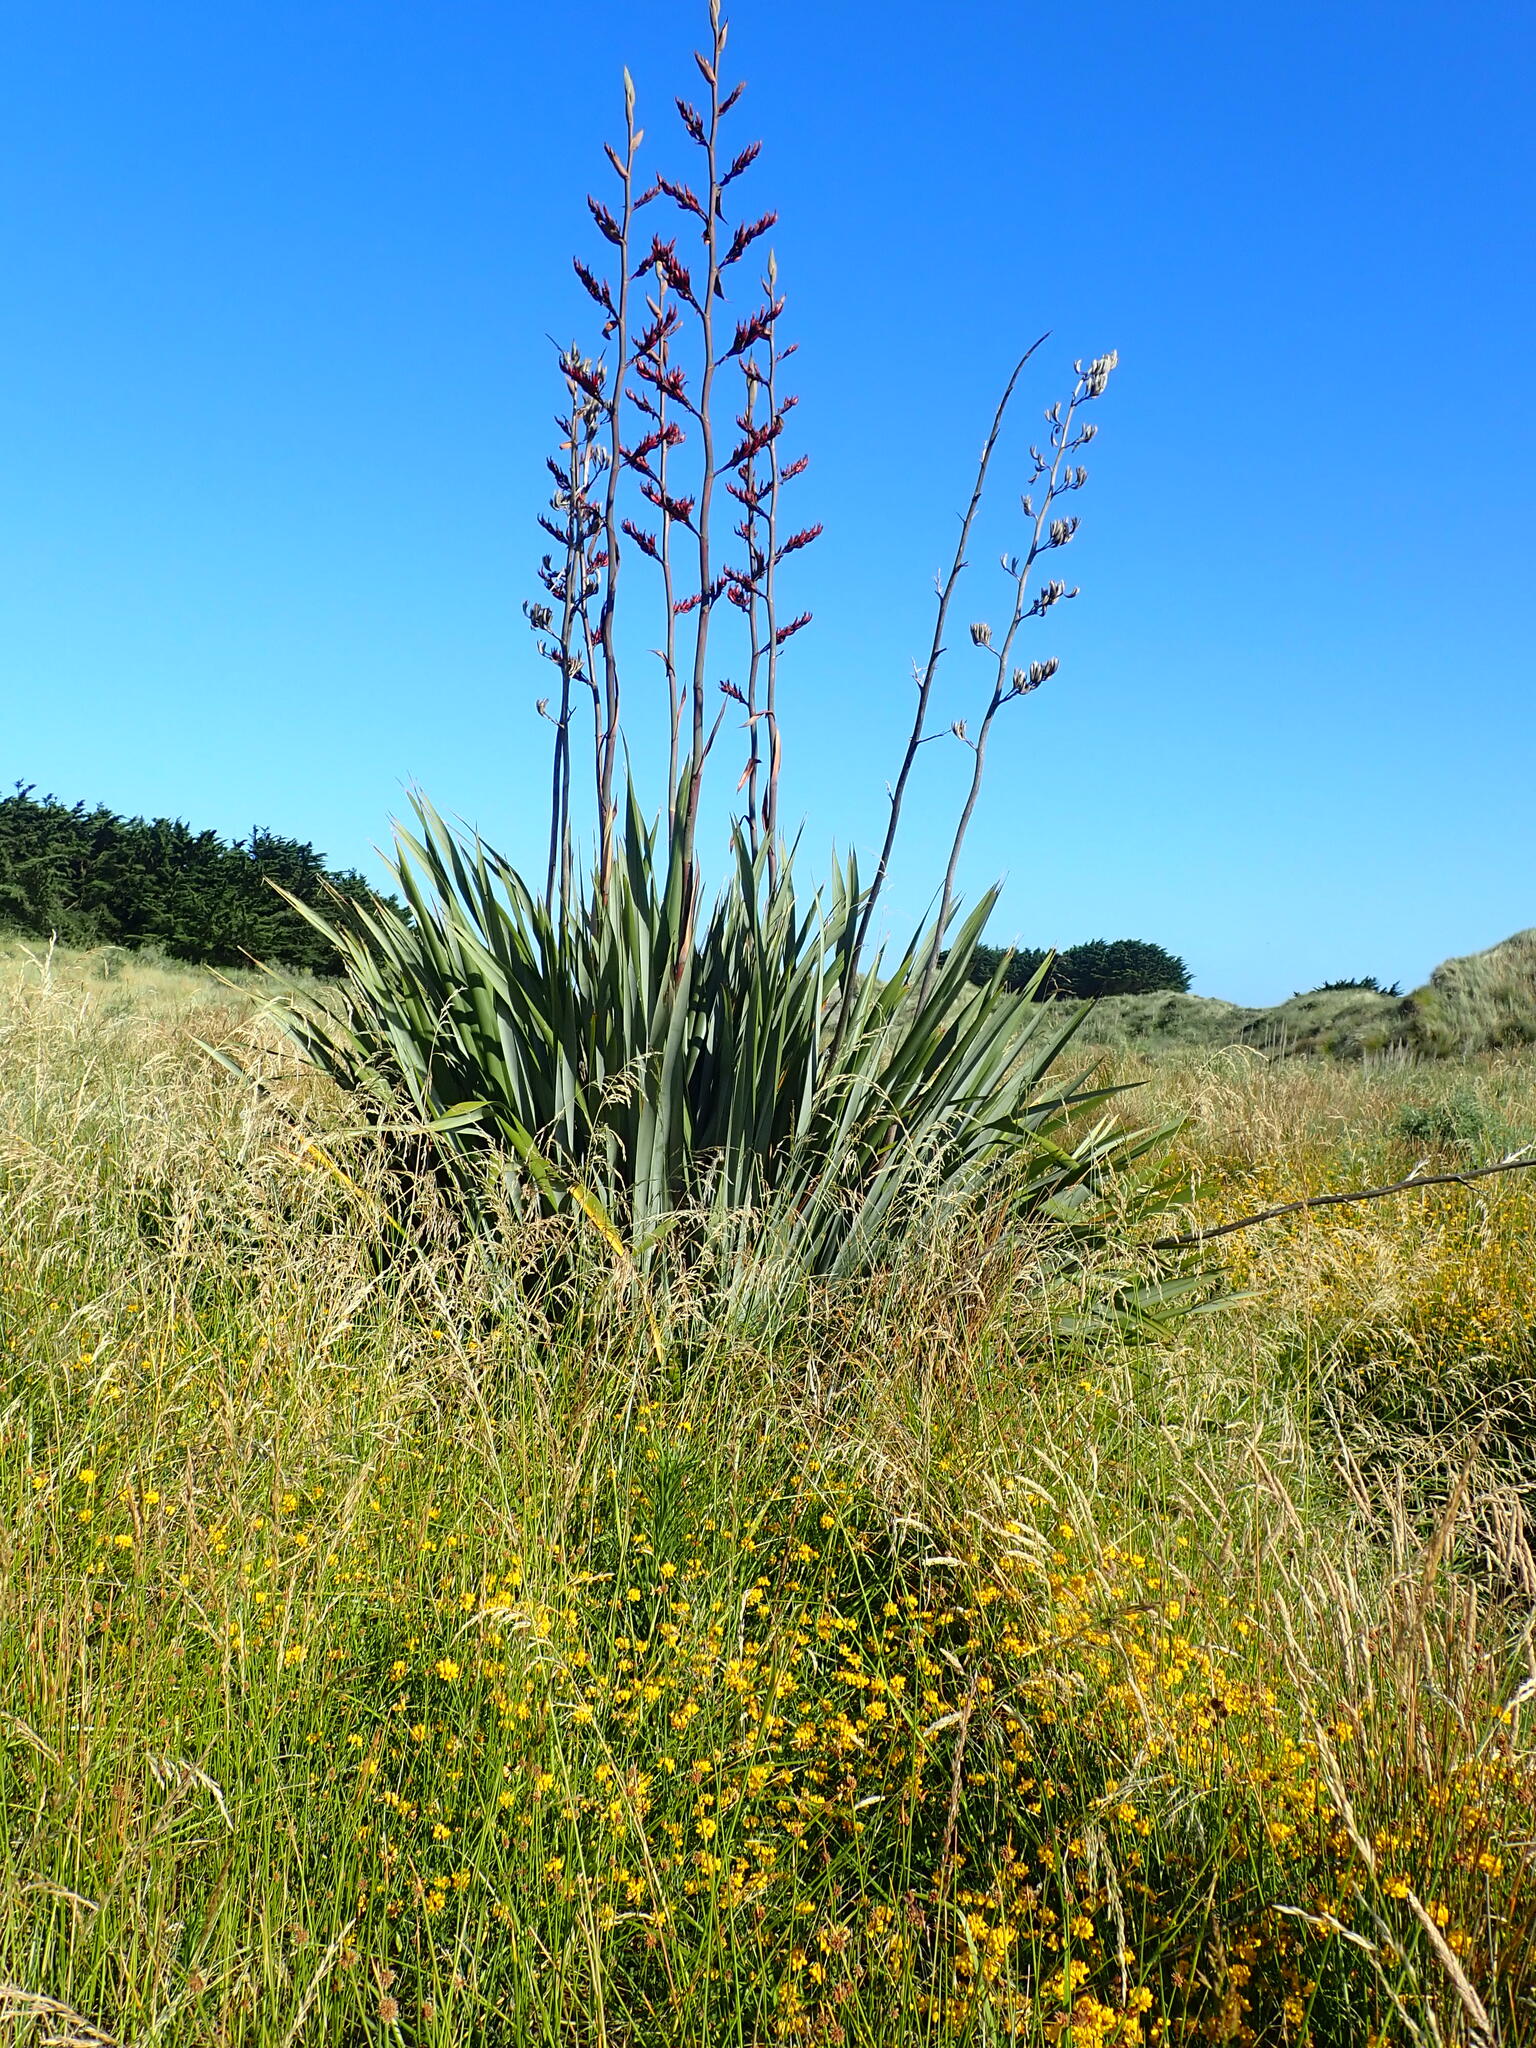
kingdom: Plantae
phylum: Tracheophyta
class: Liliopsida
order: Asparagales
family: Asphodelaceae
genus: Phormium
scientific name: Phormium tenax
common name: New zealand flax
